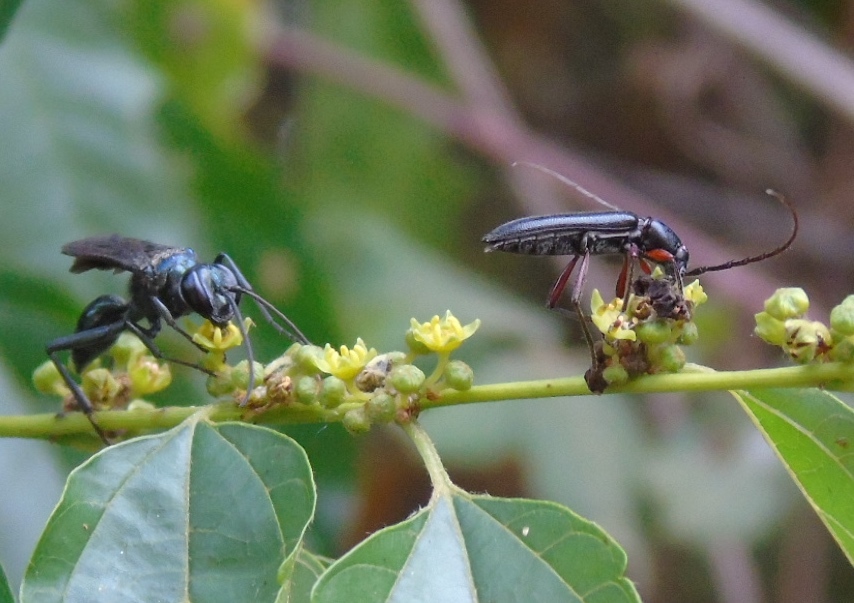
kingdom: Animalia
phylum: Arthropoda
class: Insecta
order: Coleoptera
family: Cerambycidae
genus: Stenosphenus
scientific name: Stenosphenus
